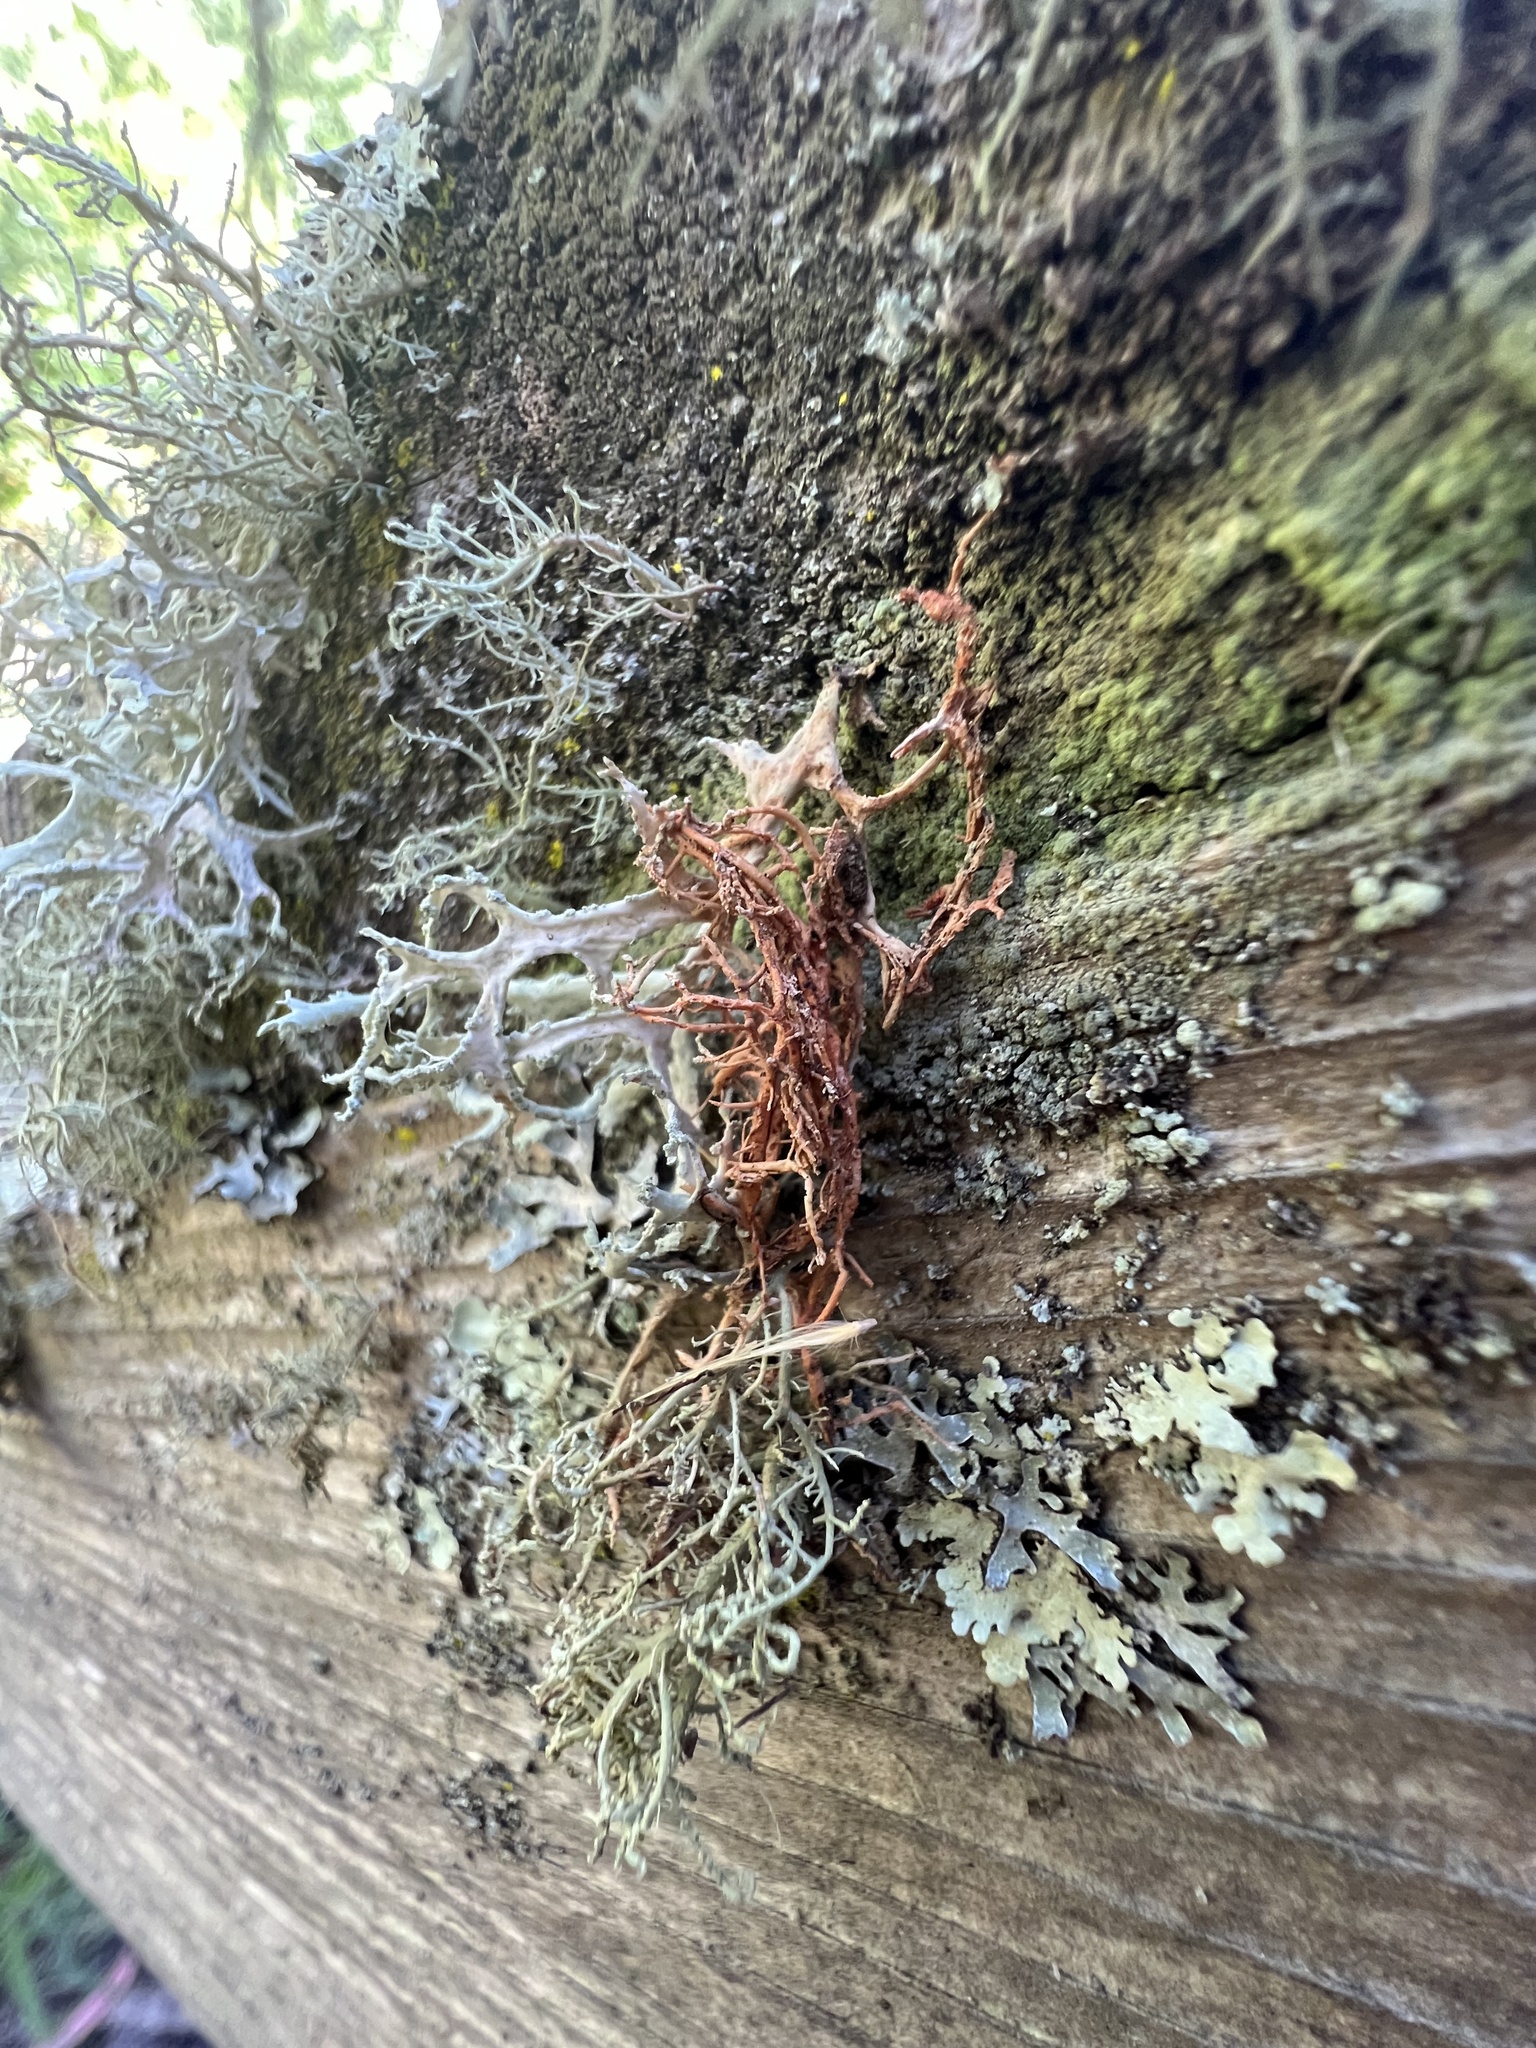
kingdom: Fungi
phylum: Ascomycota
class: Lecanoromycetes
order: Lecanorales
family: Parmeliaceae
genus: Usnea
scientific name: Usnea rubicunda
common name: Red beard lichen
